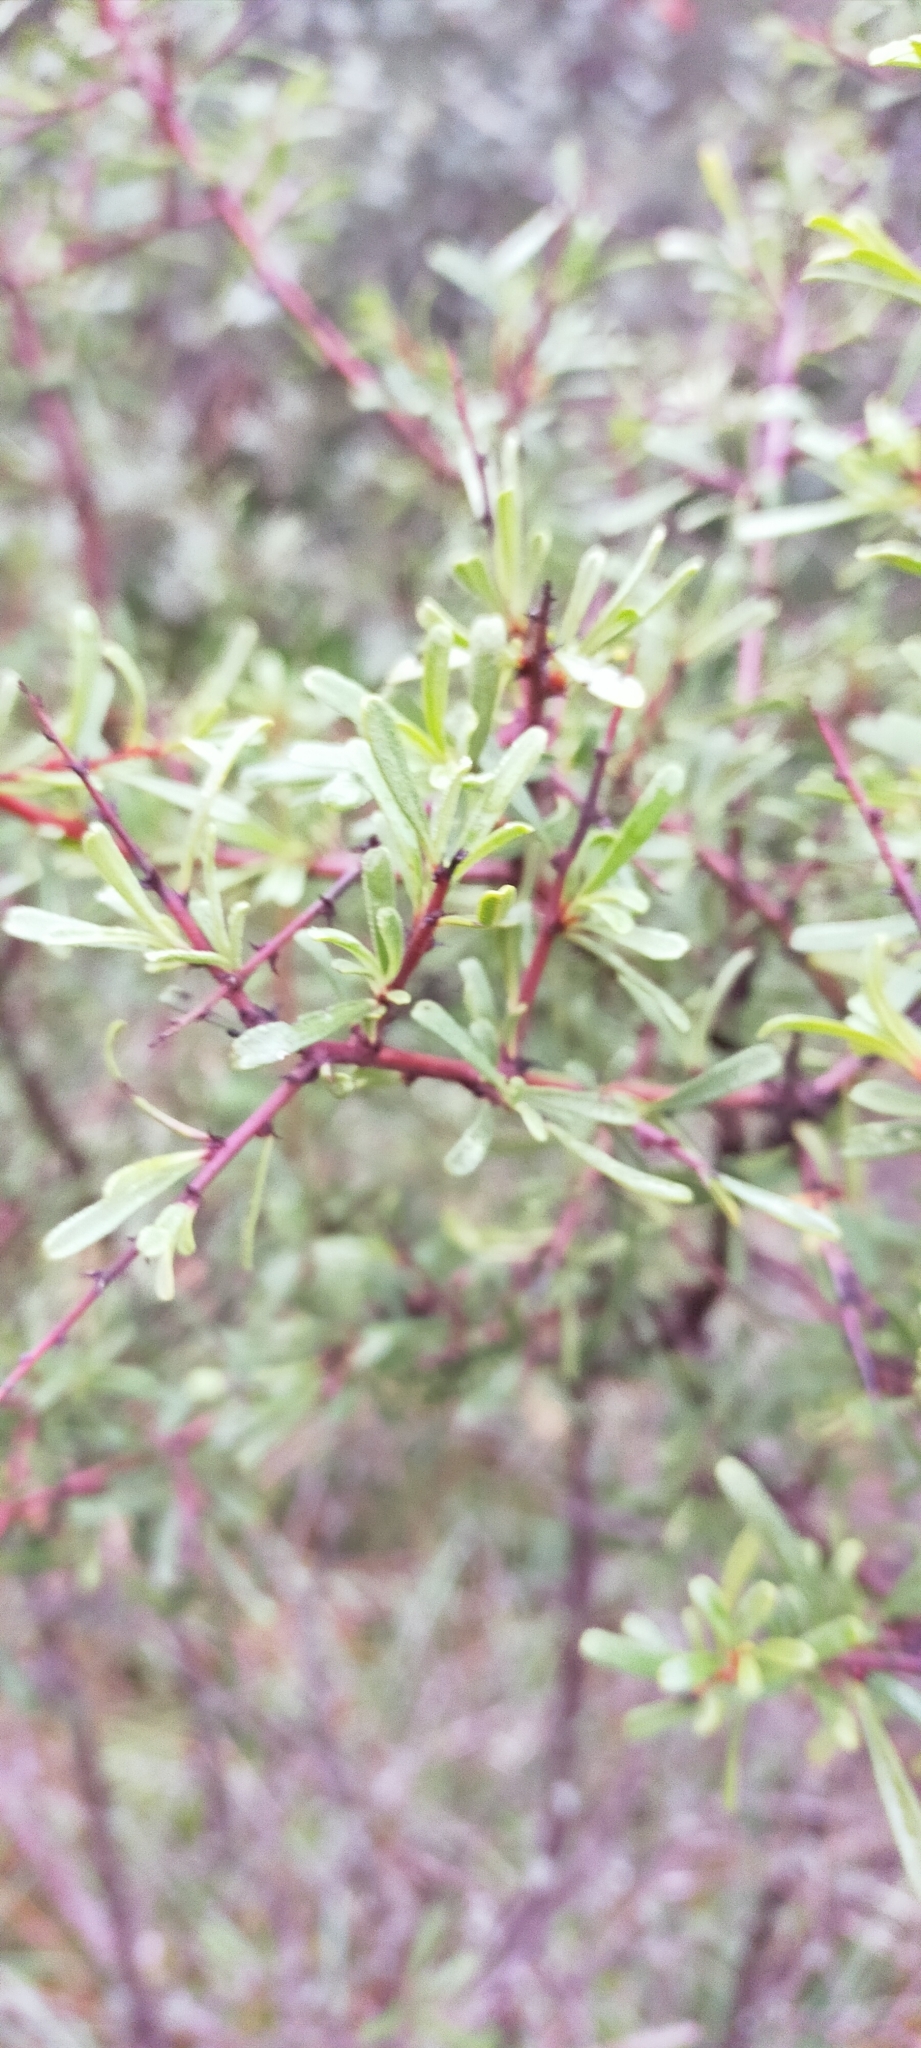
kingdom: Plantae
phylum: Tracheophyta
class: Magnoliopsida
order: Rosales
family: Rhamnaceae
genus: Rhamnus
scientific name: Rhamnus lycioides
